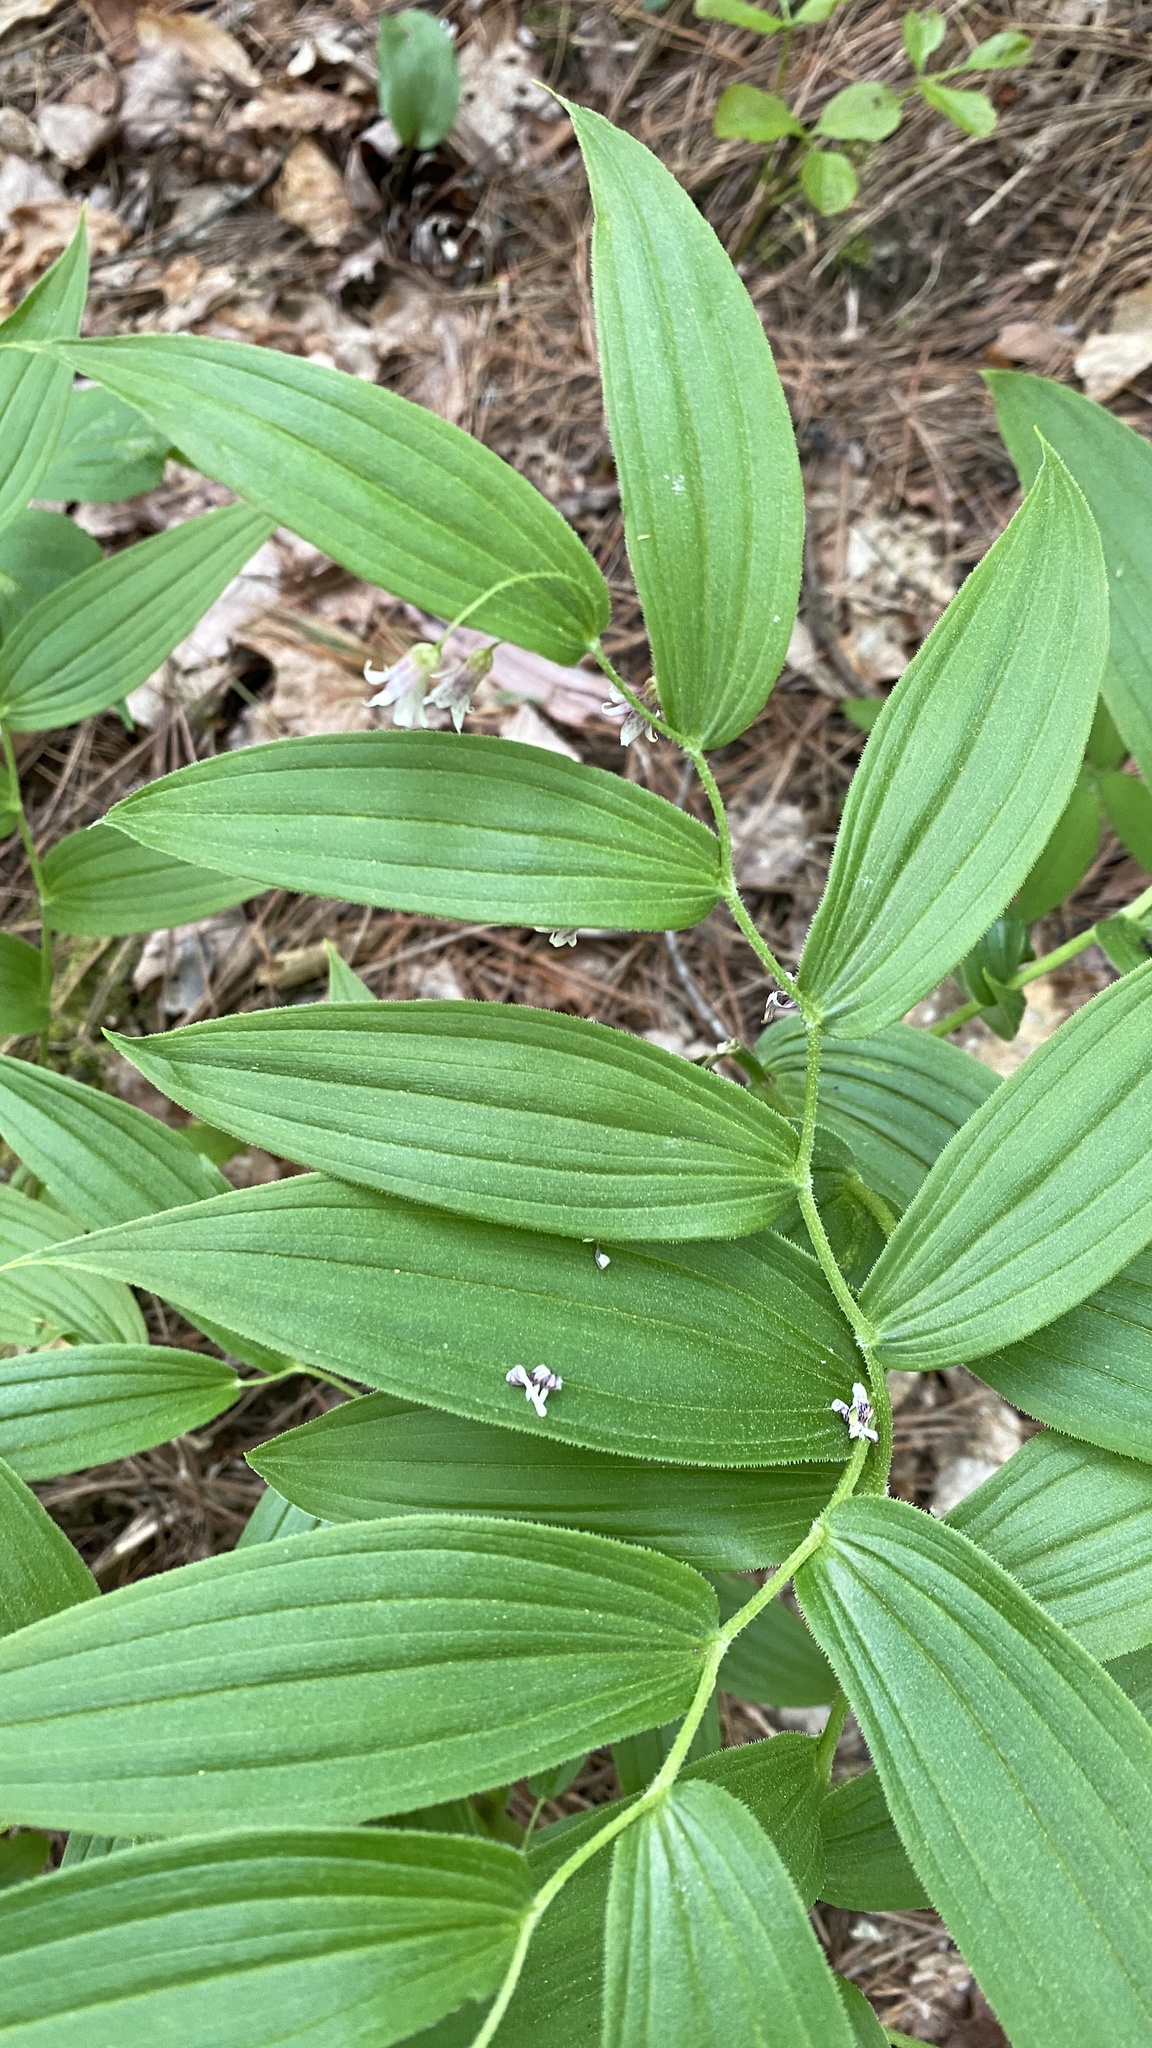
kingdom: Plantae
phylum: Tracheophyta
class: Liliopsida
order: Liliales
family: Liliaceae
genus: Streptopus
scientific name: Streptopus lanceolatus
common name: Rose mandarin
